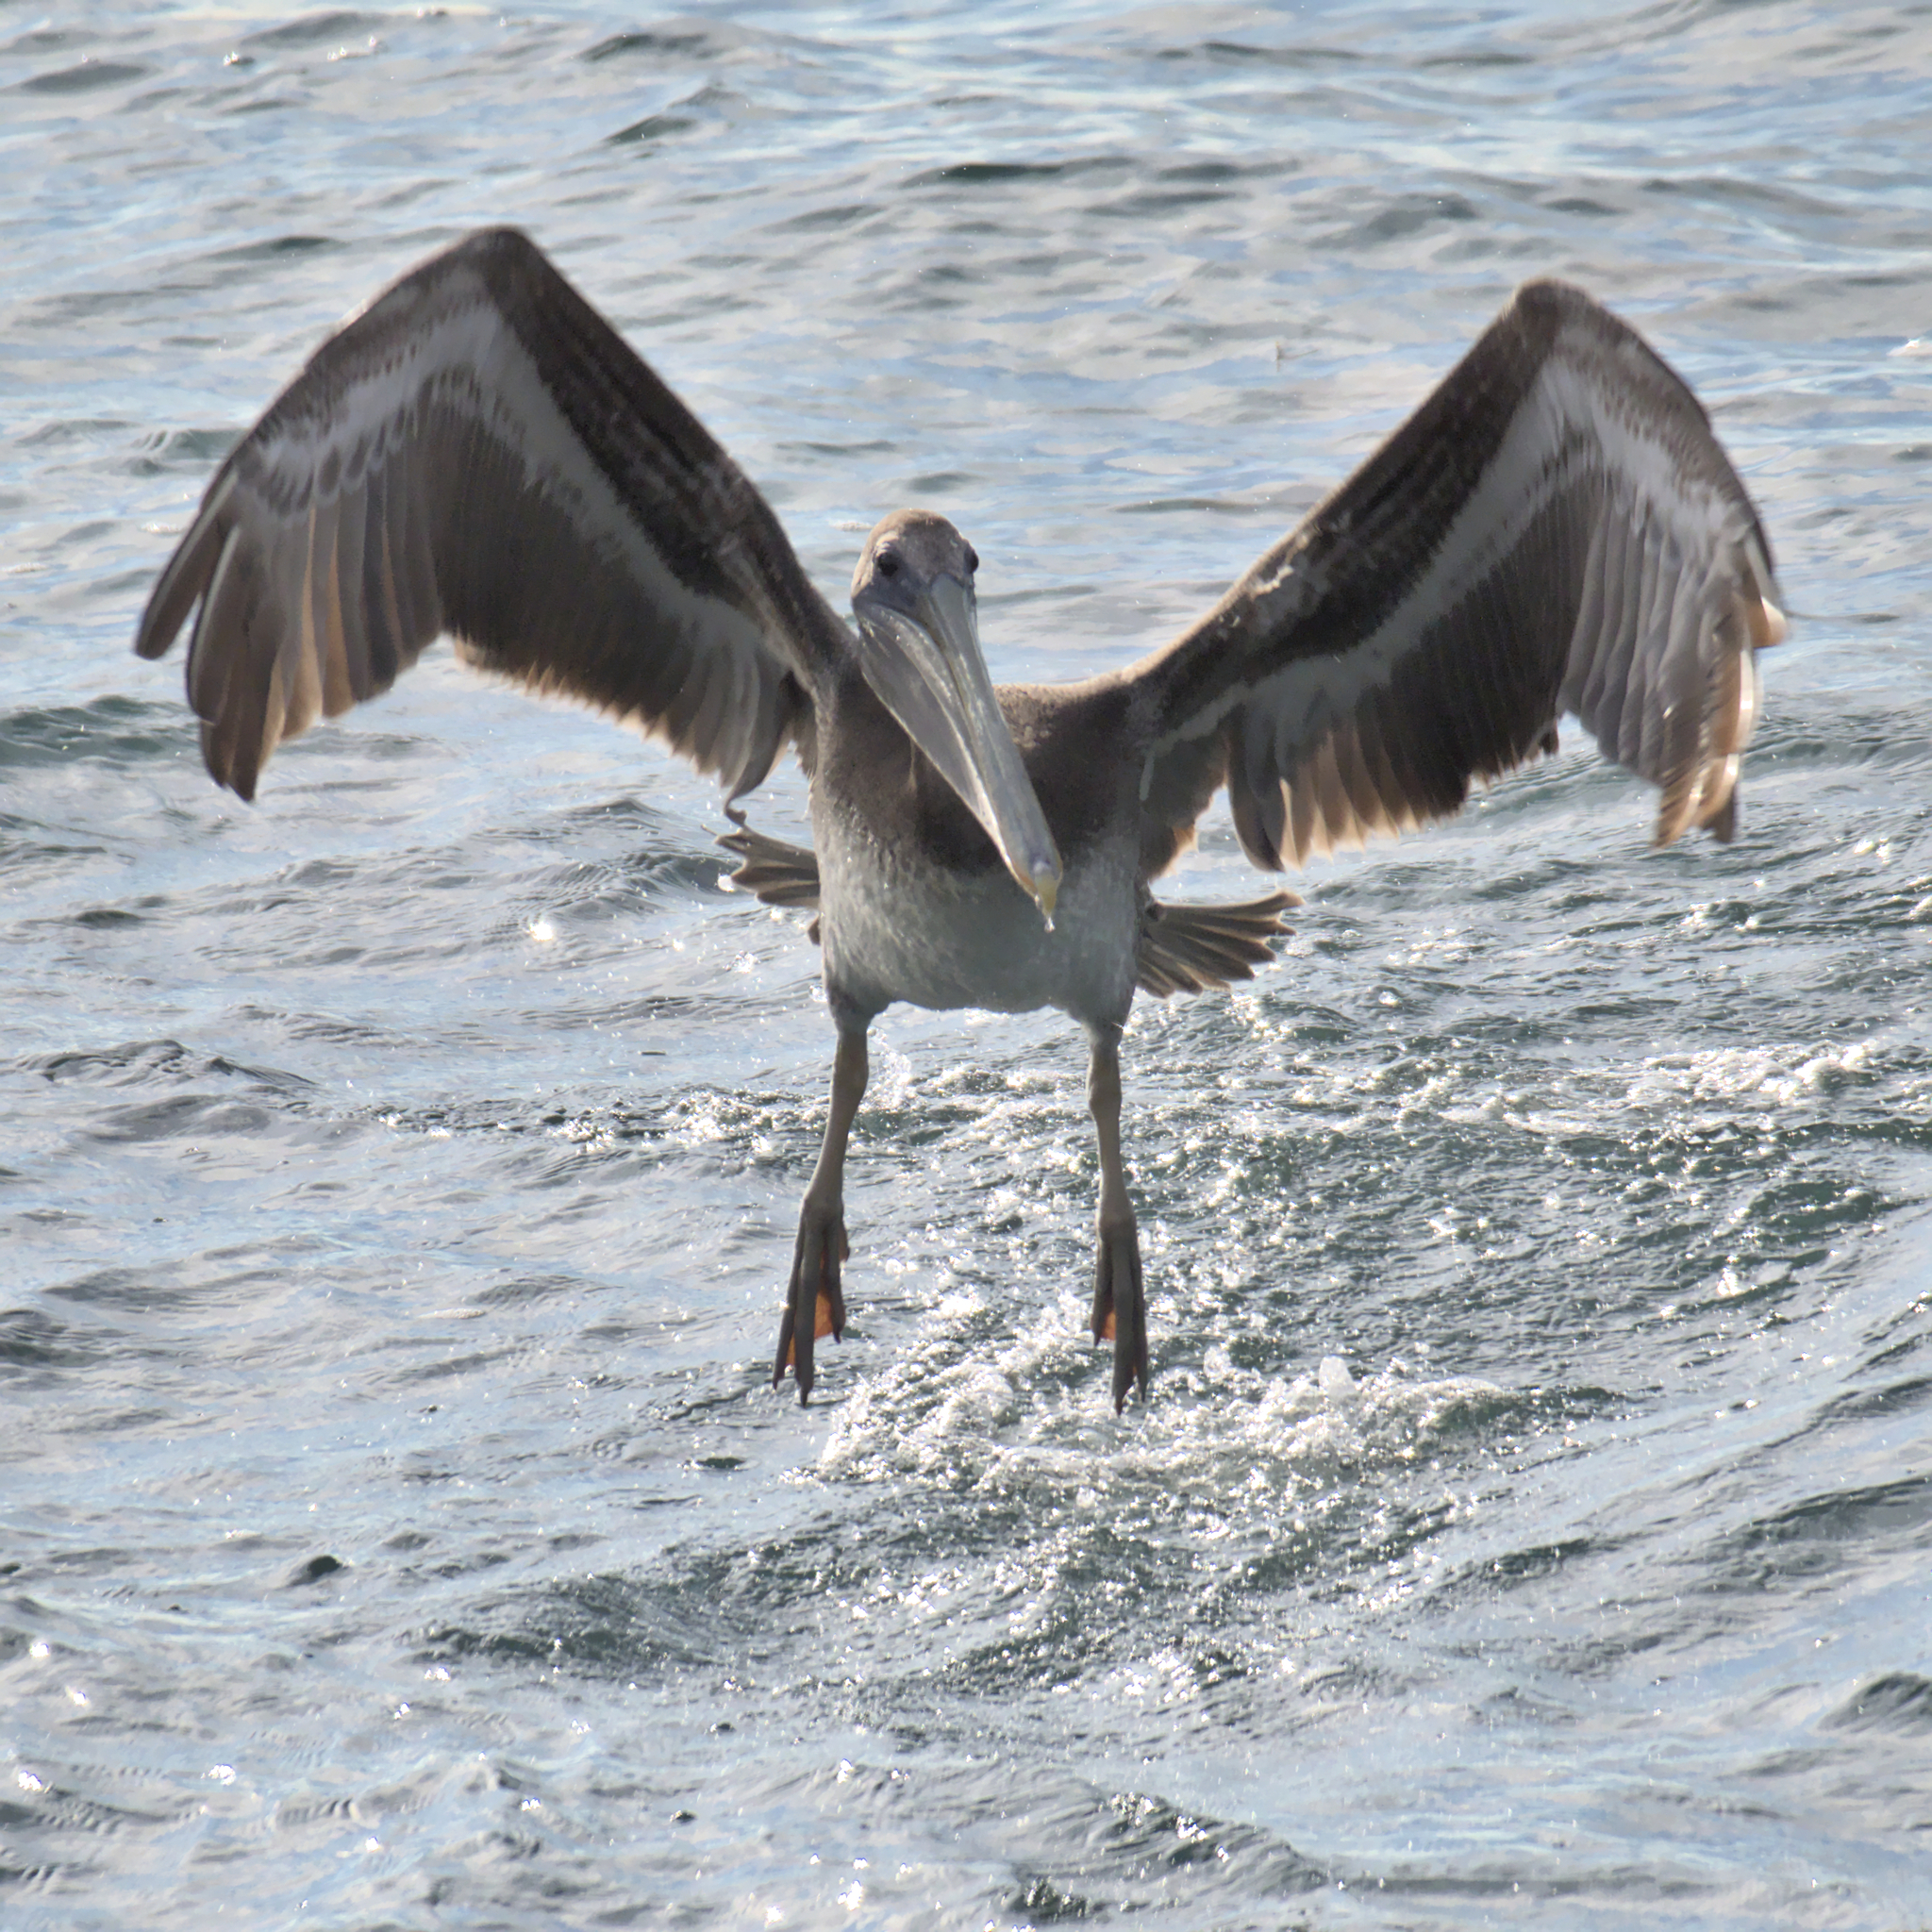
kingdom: Animalia
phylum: Chordata
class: Aves
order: Pelecaniformes
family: Pelecanidae
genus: Pelecanus
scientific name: Pelecanus occidentalis
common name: Brown pelican
